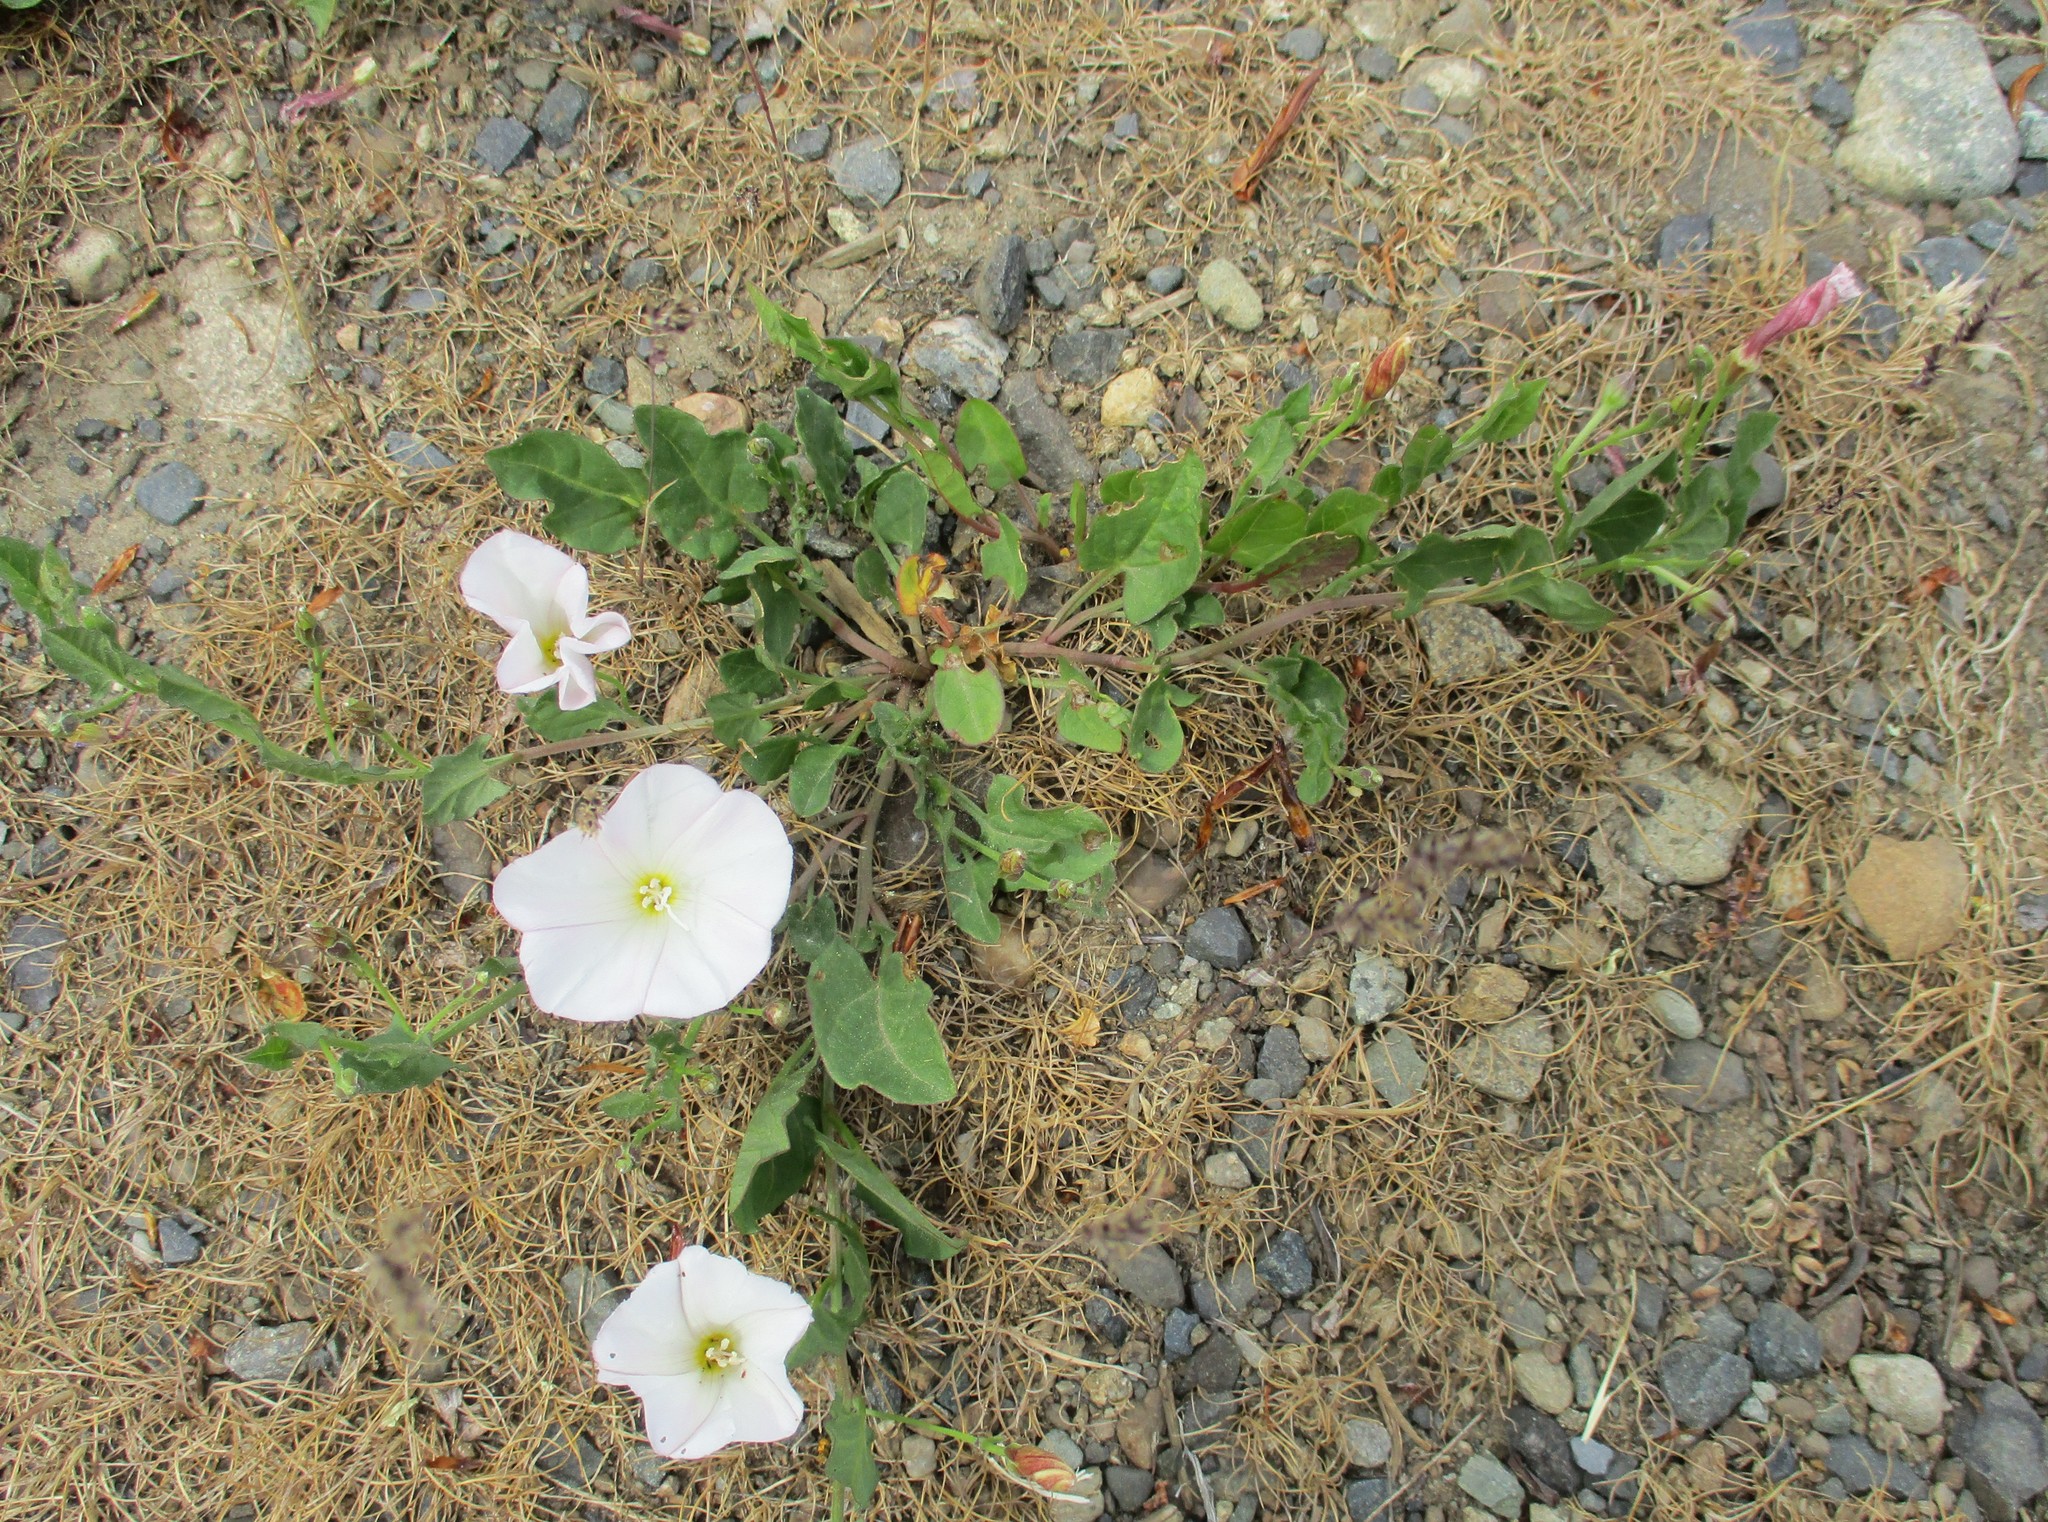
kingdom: Plantae
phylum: Tracheophyta
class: Magnoliopsida
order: Solanales
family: Convolvulaceae
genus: Convolvulus
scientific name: Convolvulus arvensis
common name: Field bindweed
